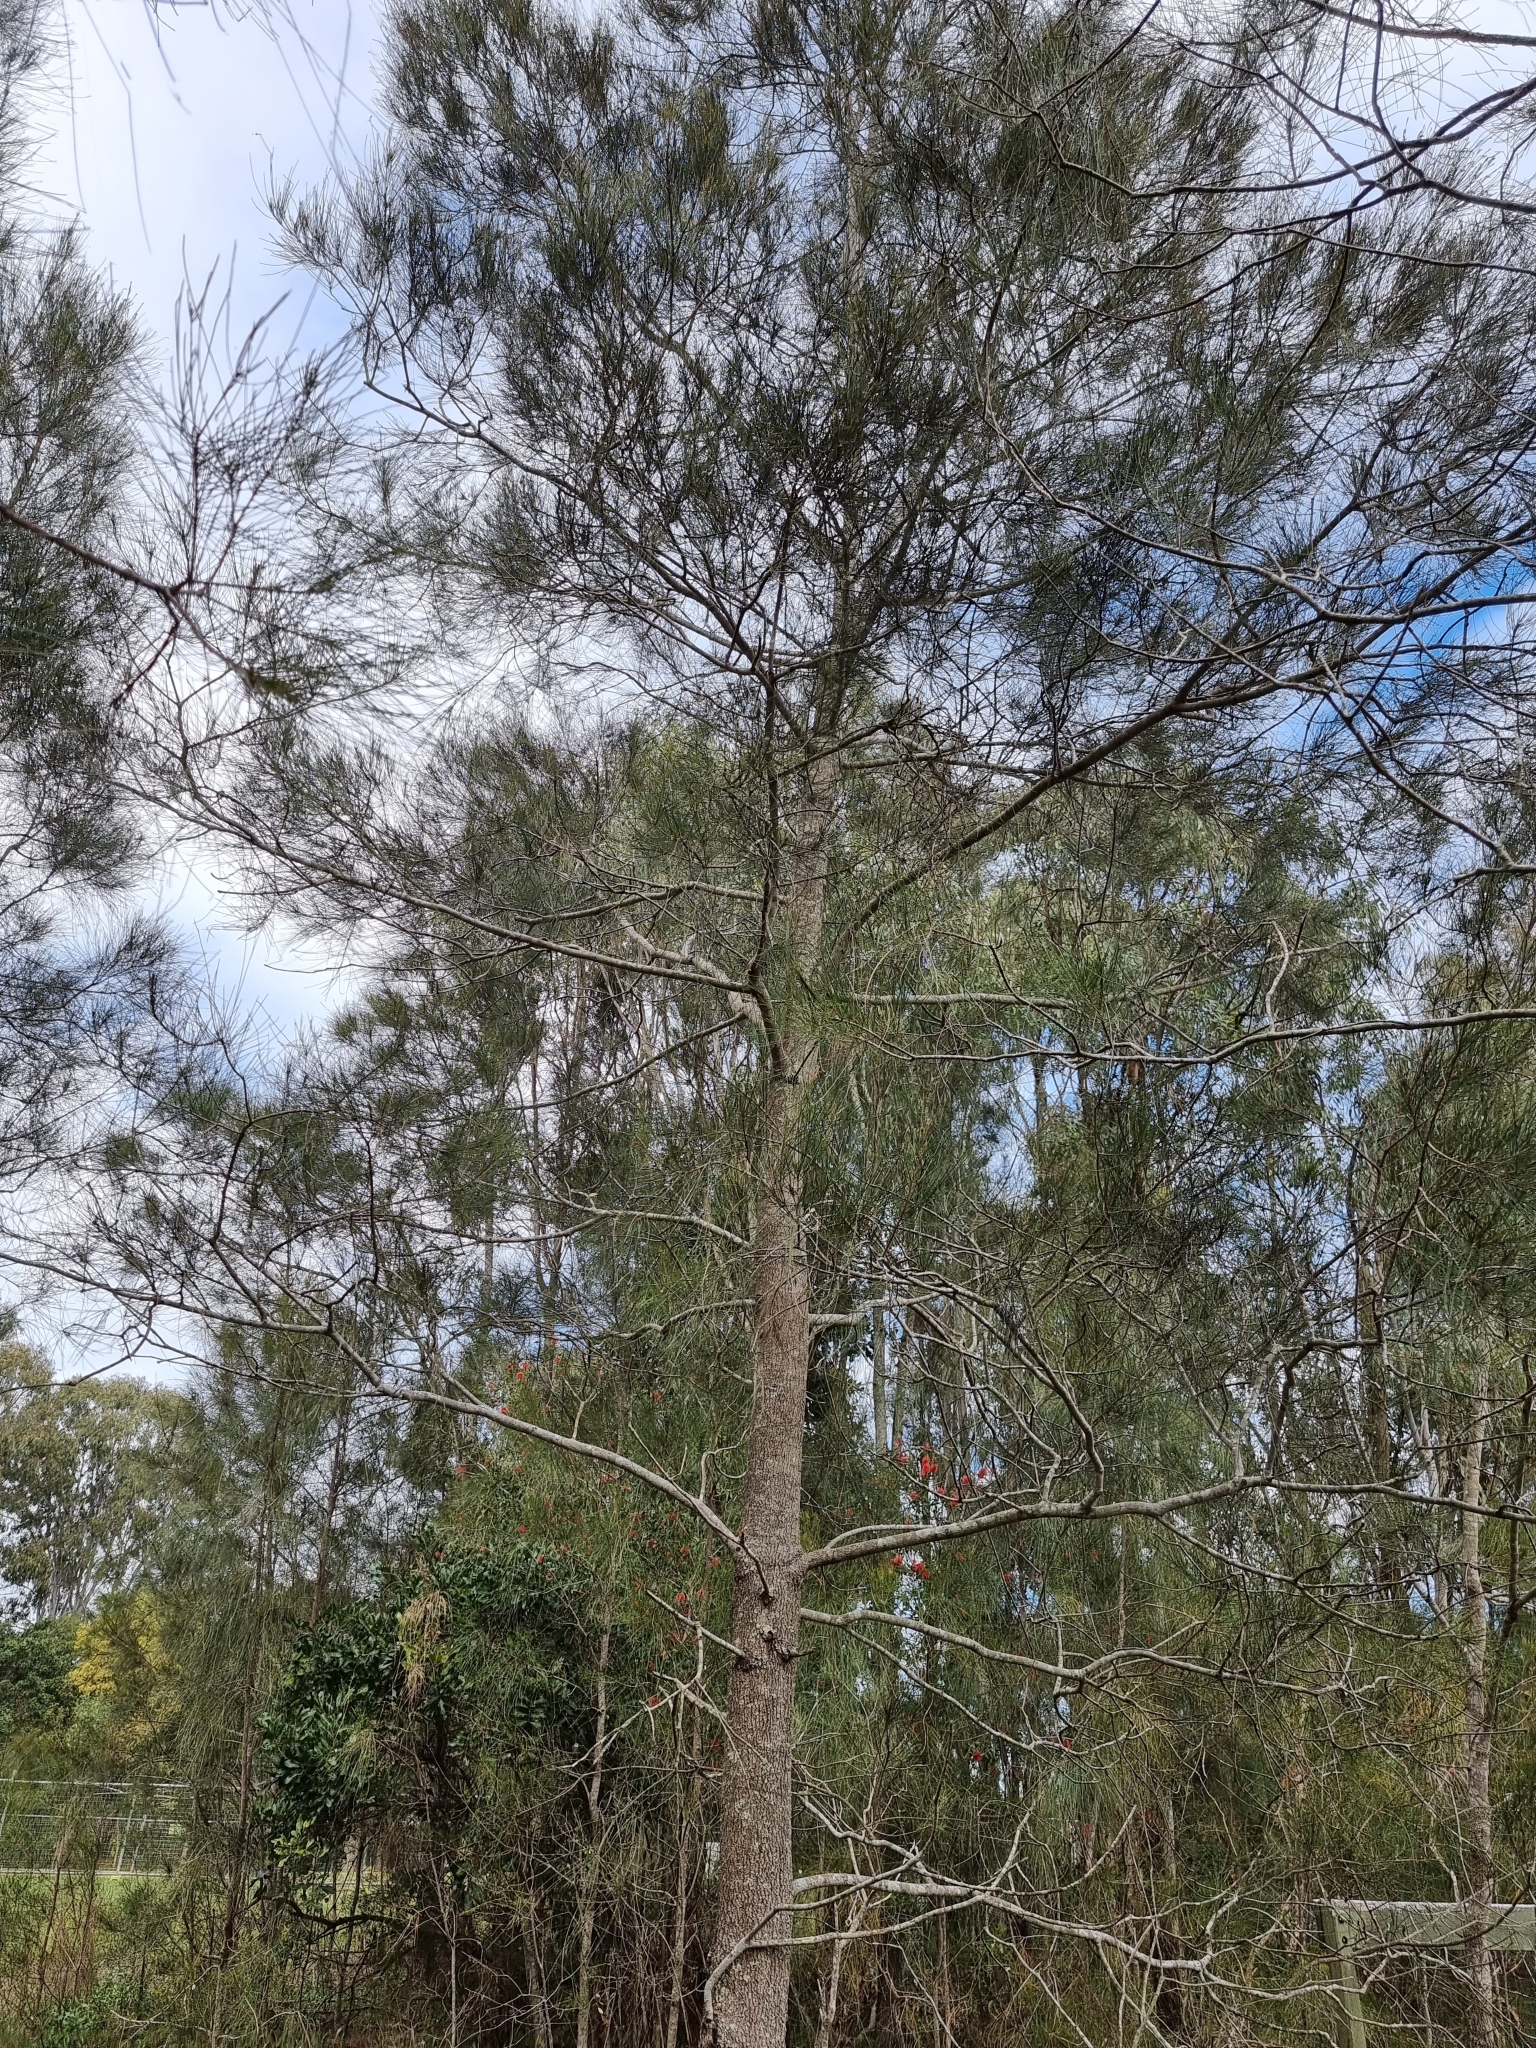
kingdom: Plantae
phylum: Tracheophyta
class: Magnoliopsida
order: Fagales
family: Casuarinaceae
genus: Casuarina
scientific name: Casuarina glauca
